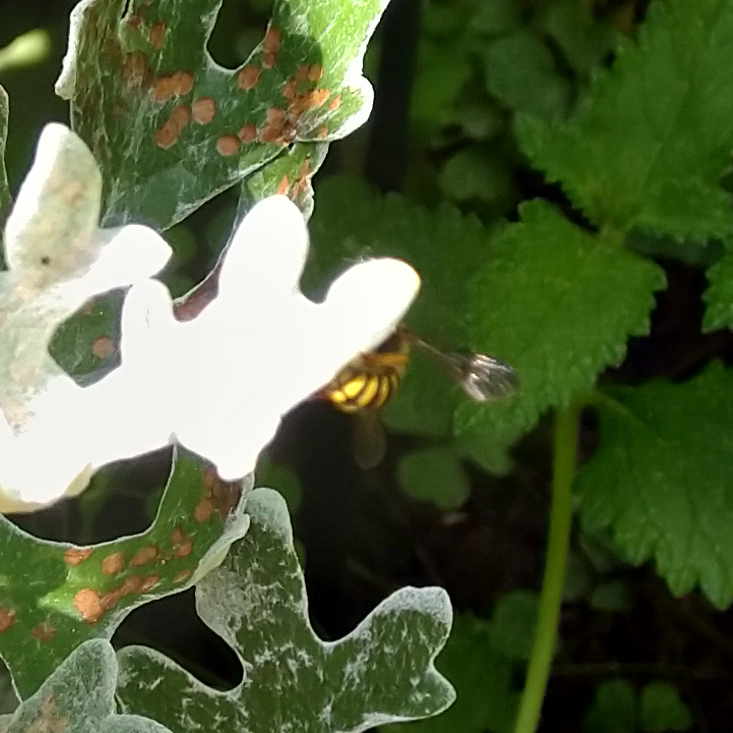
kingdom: Animalia
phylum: Arthropoda
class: Insecta
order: Hymenoptera
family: Megachilidae
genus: Anthidium
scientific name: Anthidium oblongatum
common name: Oblong wool carder bee
